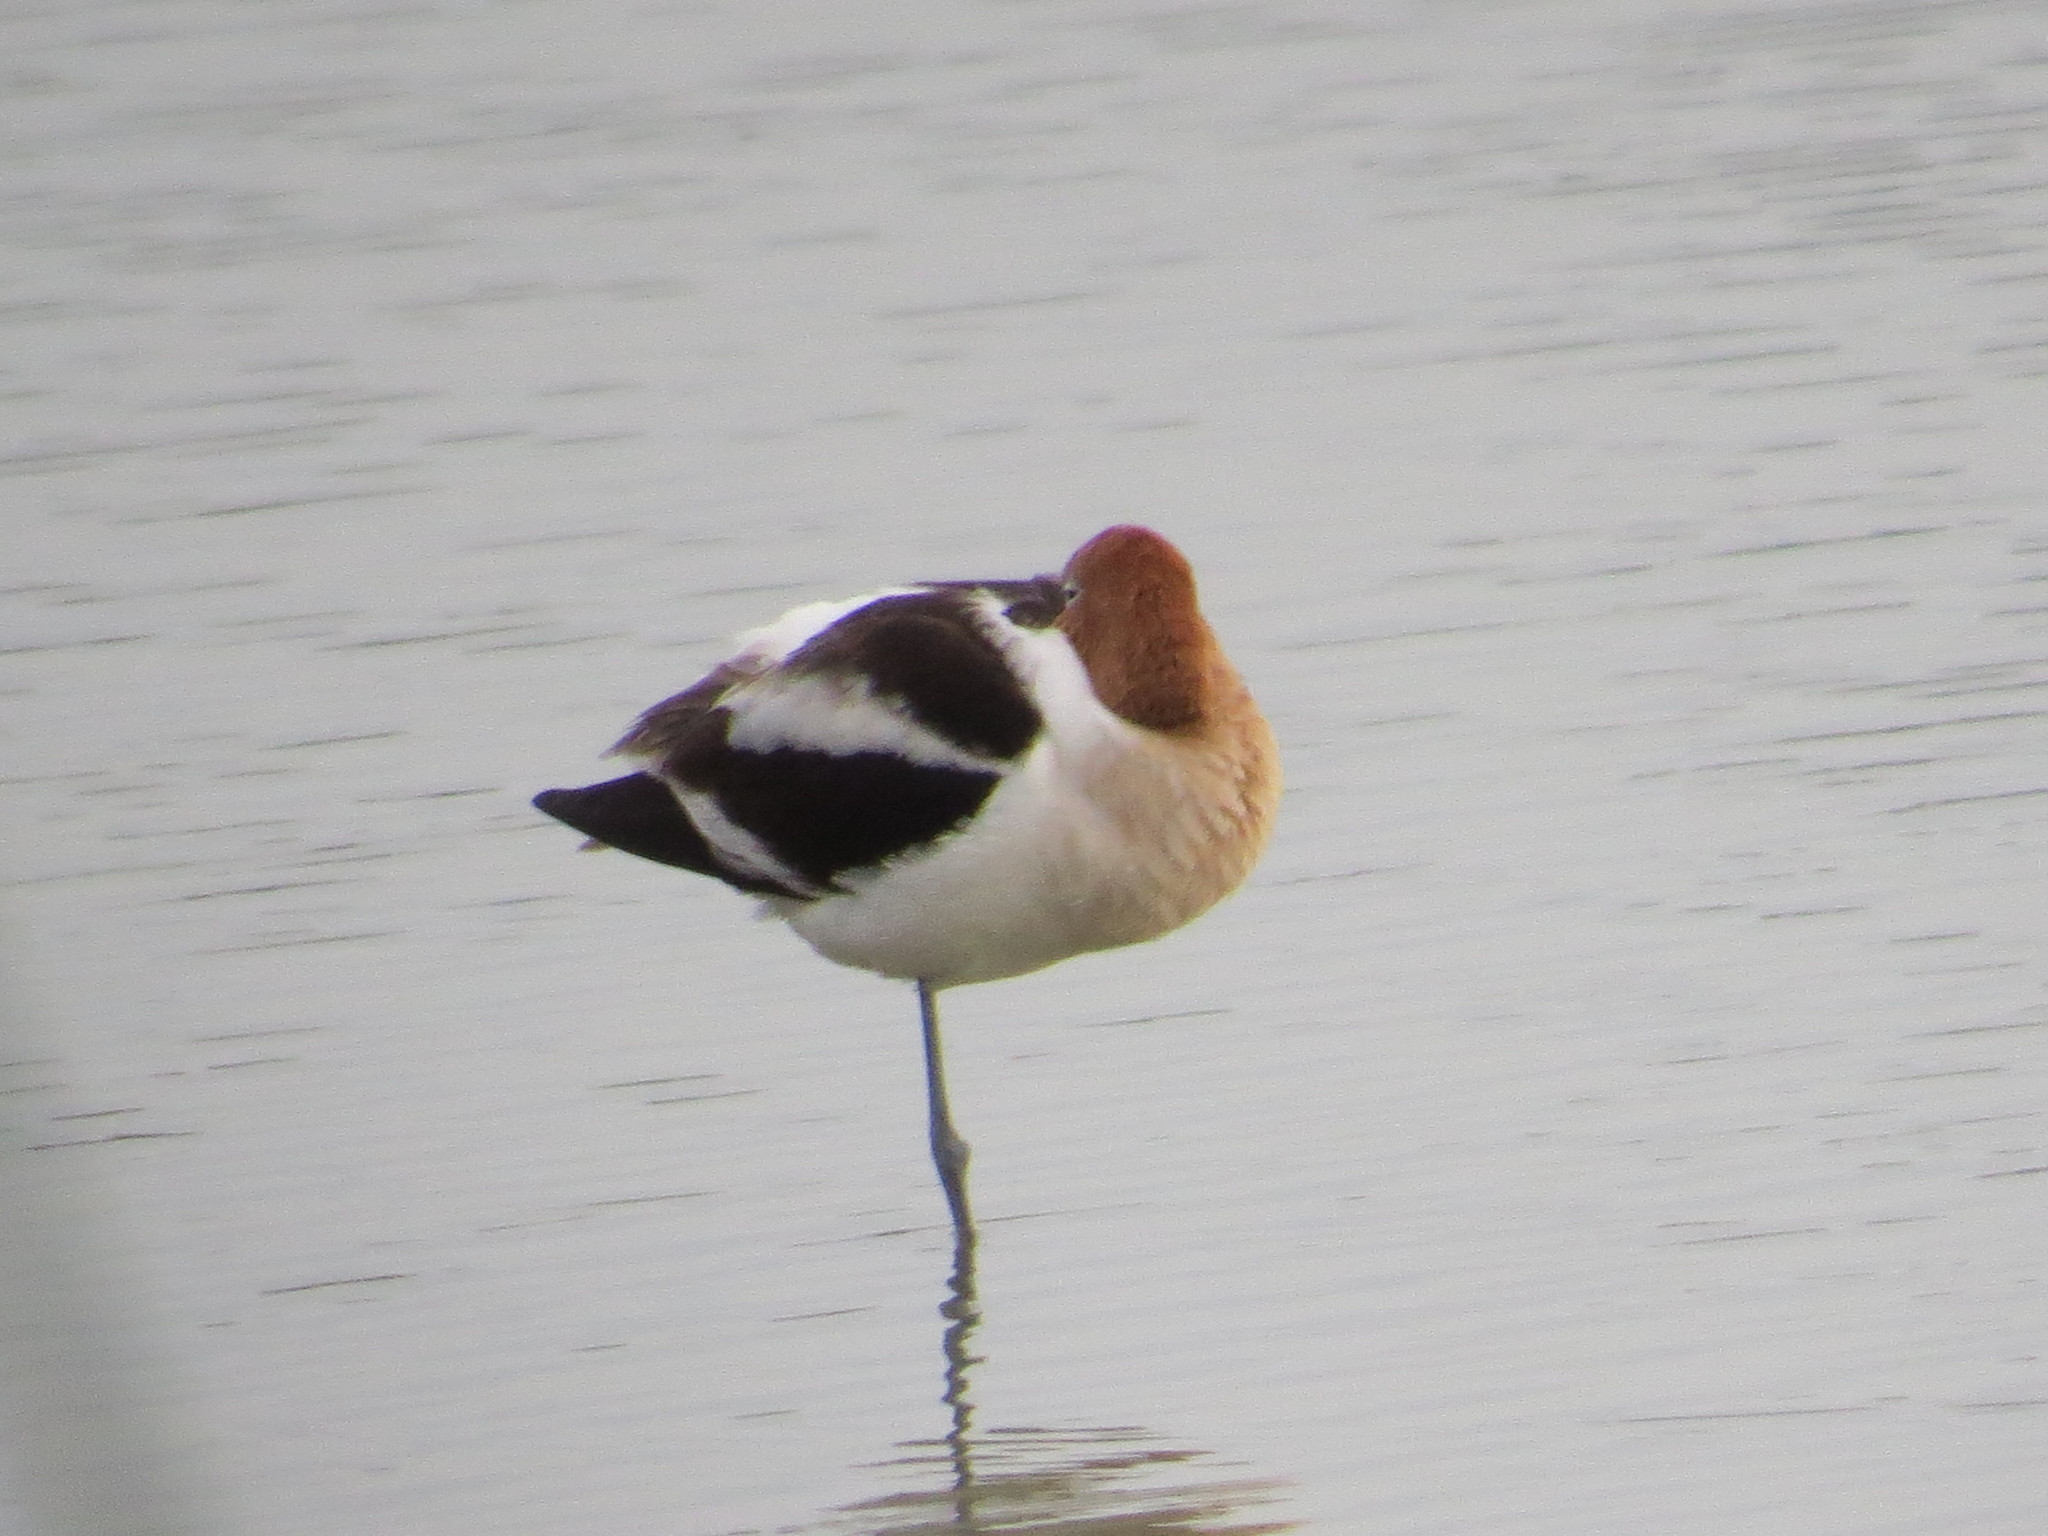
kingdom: Animalia
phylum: Chordata
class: Aves
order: Charadriiformes
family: Recurvirostridae
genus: Recurvirostra
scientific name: Recurvirostra americana
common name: American avocet
